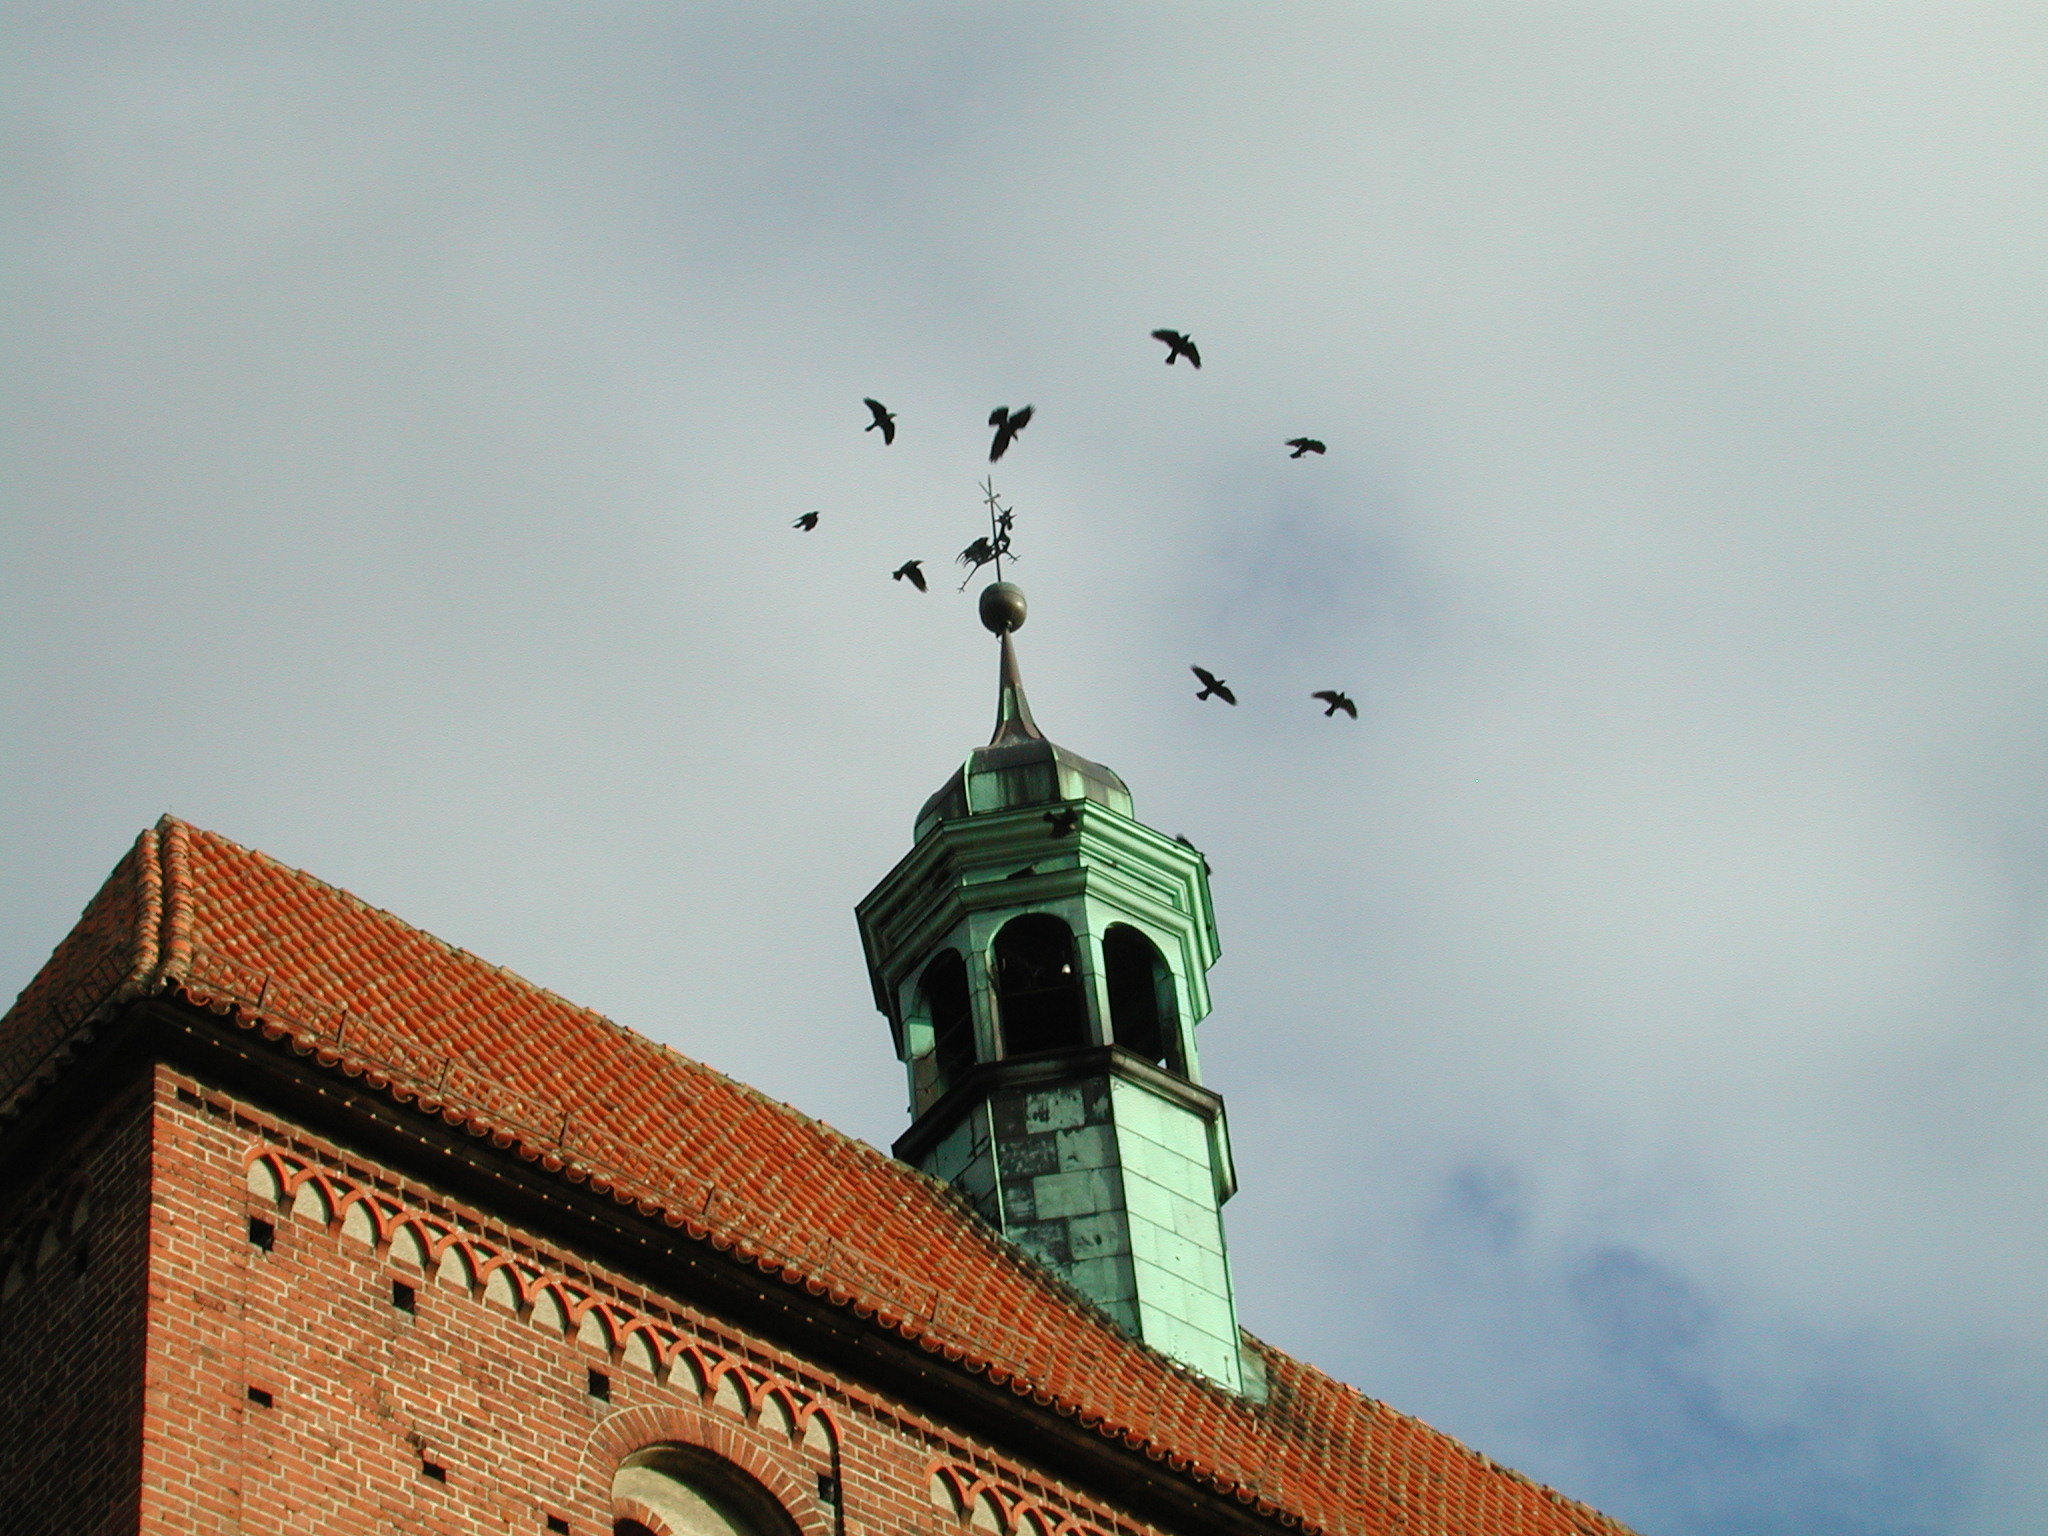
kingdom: Animalia
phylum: Chordata
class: Aves
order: Passeriformes
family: Corvidae
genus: Coloeus
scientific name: Coloeus monedula
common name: Western jackdaw
